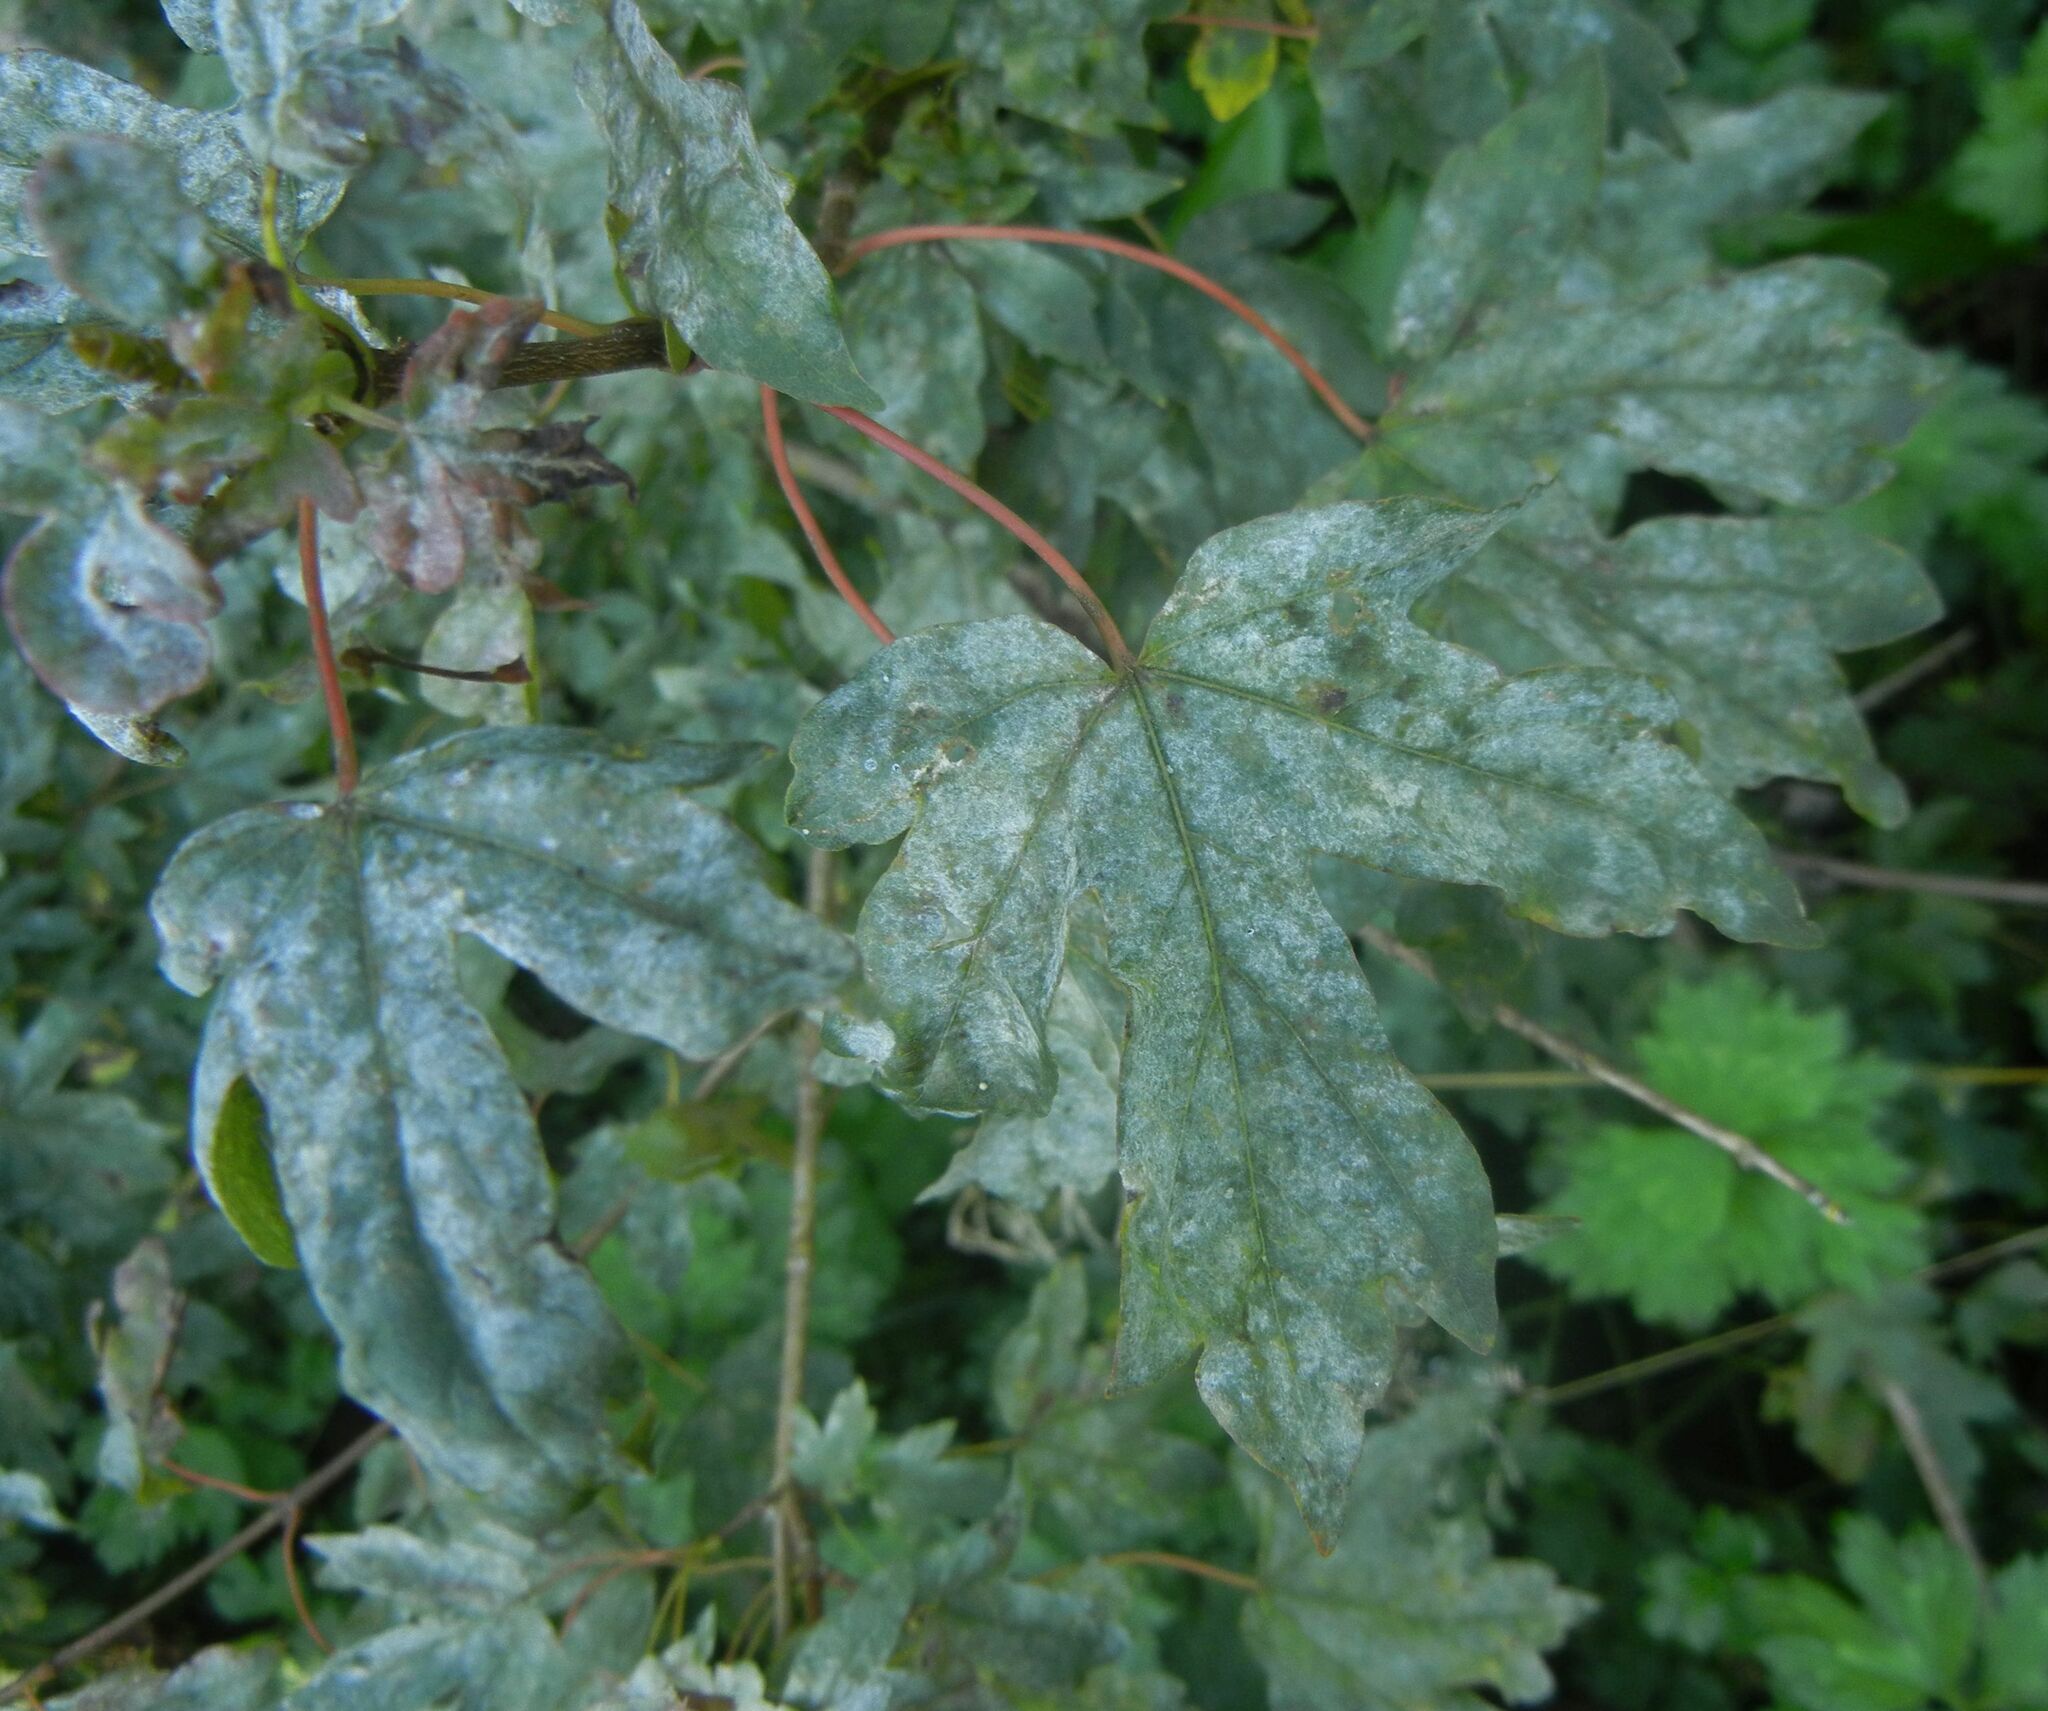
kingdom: Fungi
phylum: Ascomycota
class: Leotiomycetes
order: Helotiales
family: Erysiphaceae
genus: Sawadaea
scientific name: Sawadaea bicornis
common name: Maple mildew
